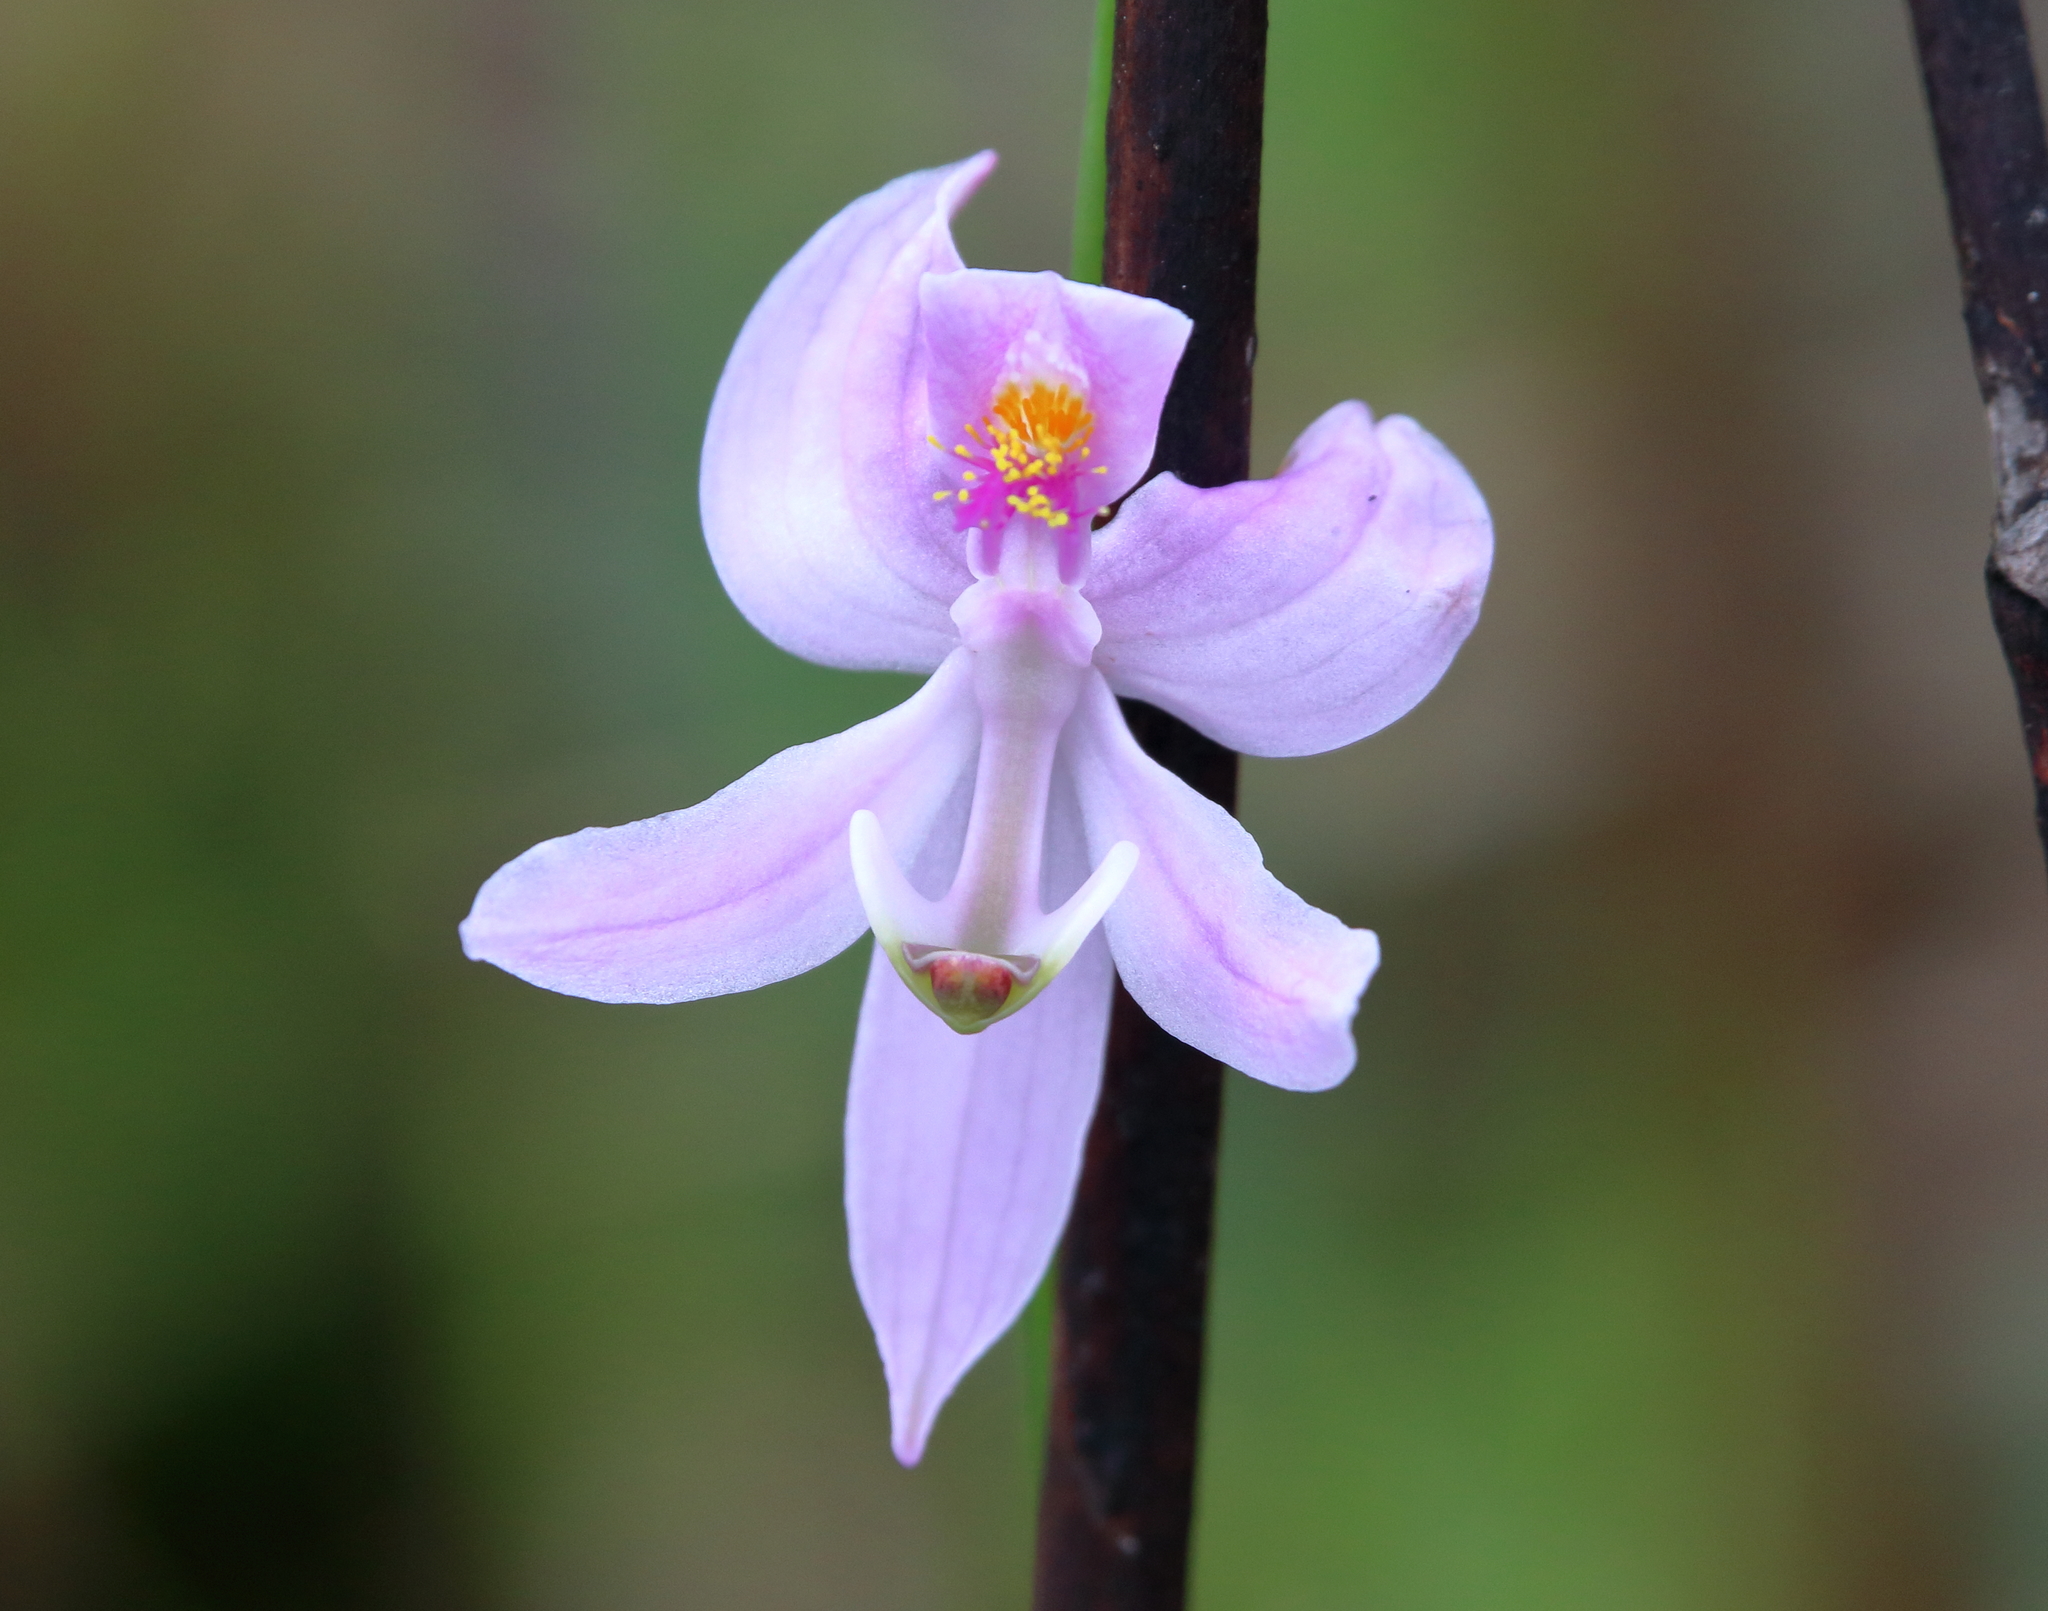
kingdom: Plantae
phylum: Tracheophyta
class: Liliopsida
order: Asparagales
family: Orchidaceae
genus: Calopogon
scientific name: Calopogon pallidus
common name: Pale grasspink
